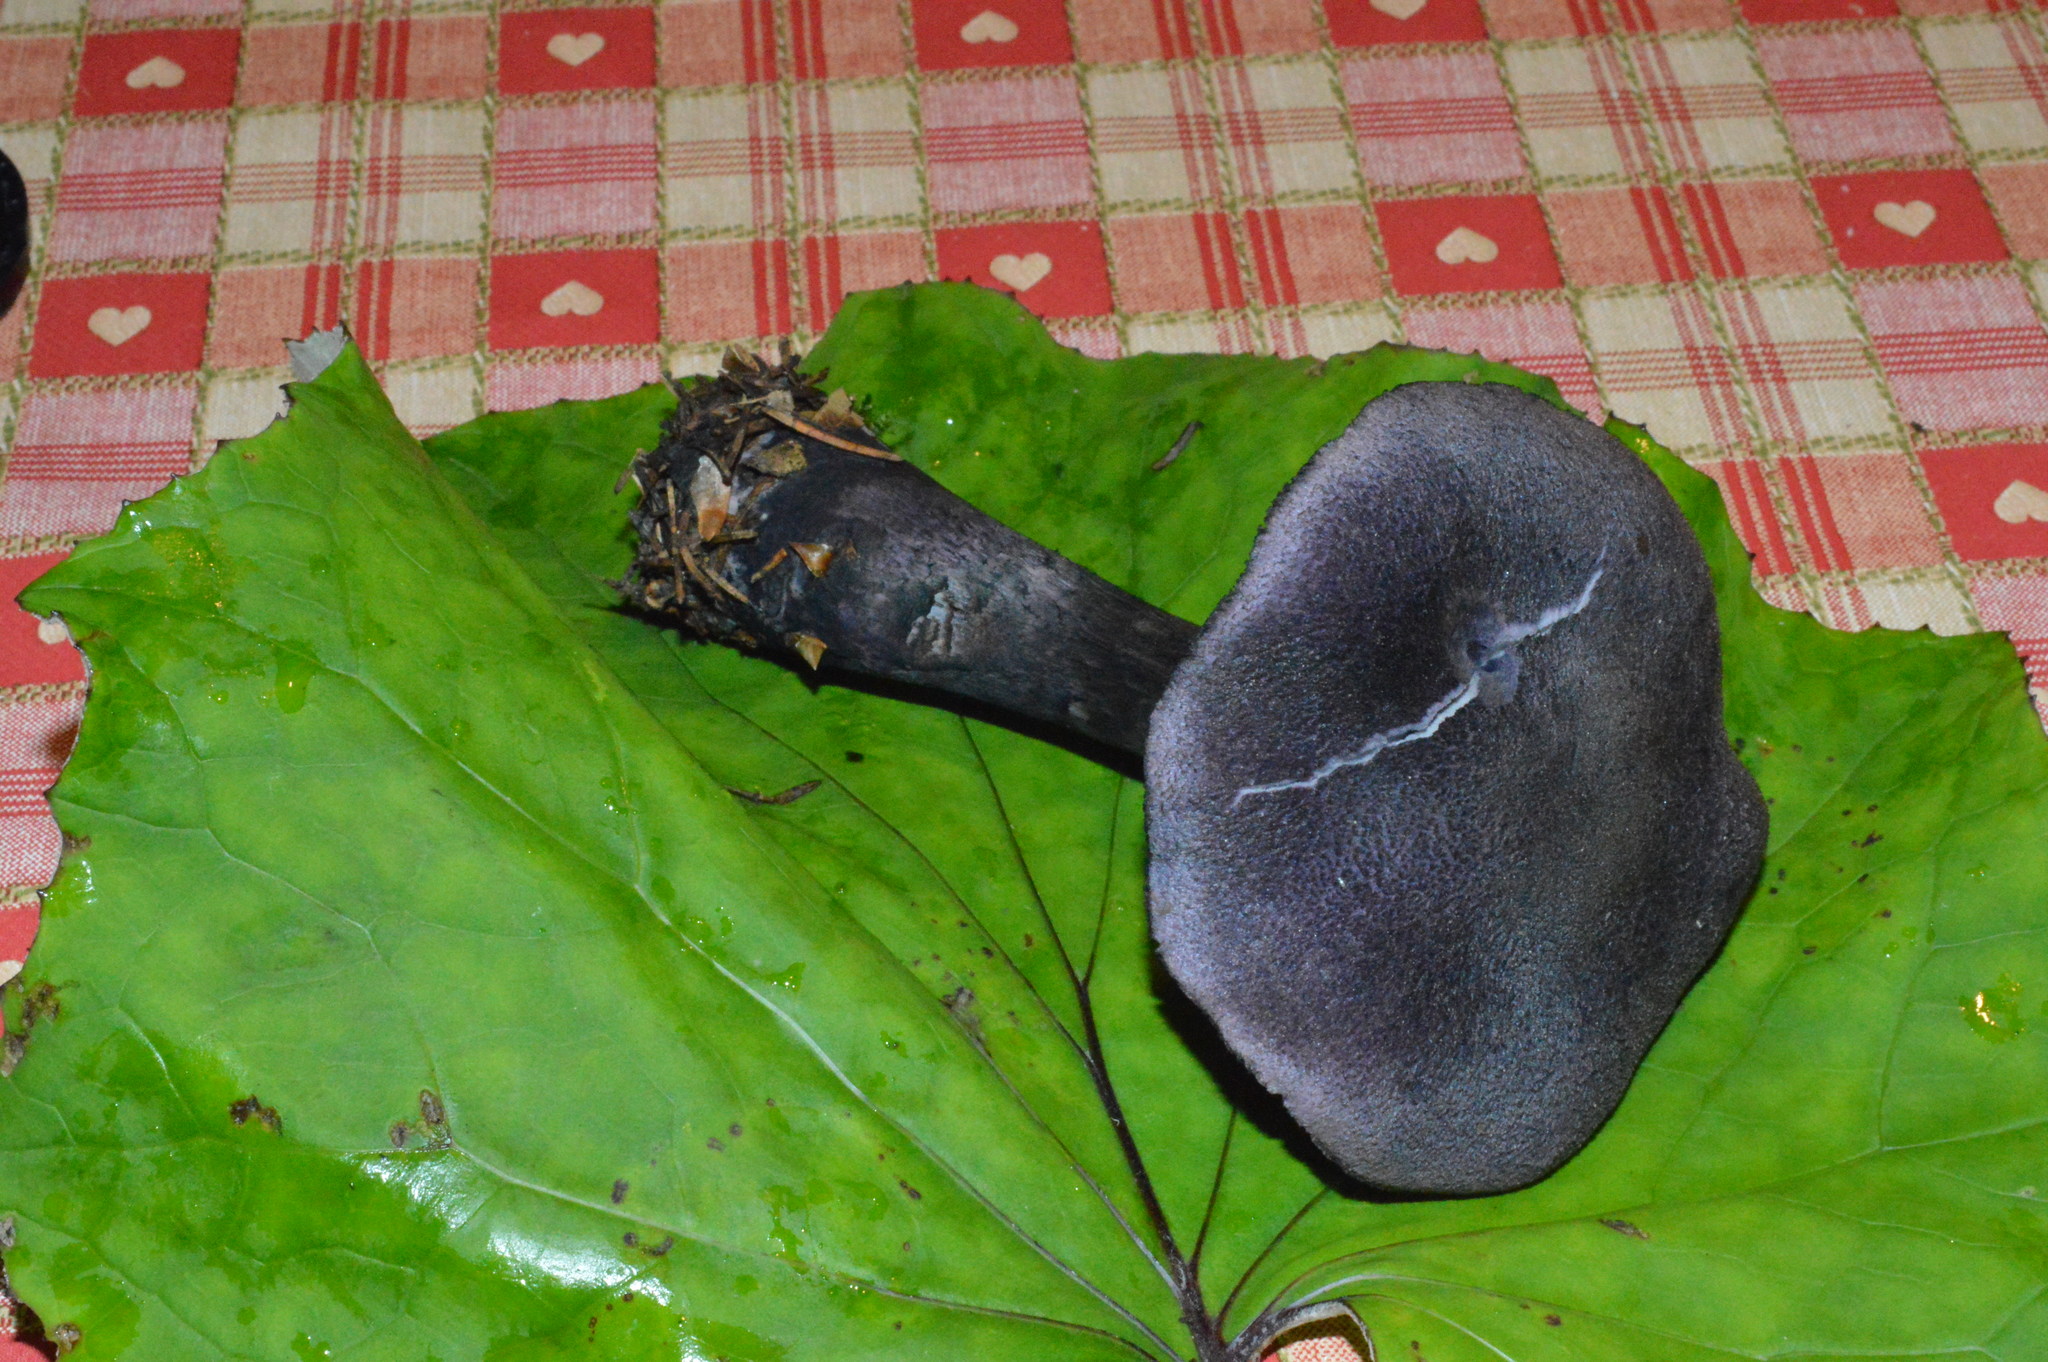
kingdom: Fungi
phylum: Basidiomycota
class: Agaricomycetes
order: Agaricales
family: Cortinariaceae
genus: Cortinarius
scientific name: Cortinarius violaceus
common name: Violet webcap
